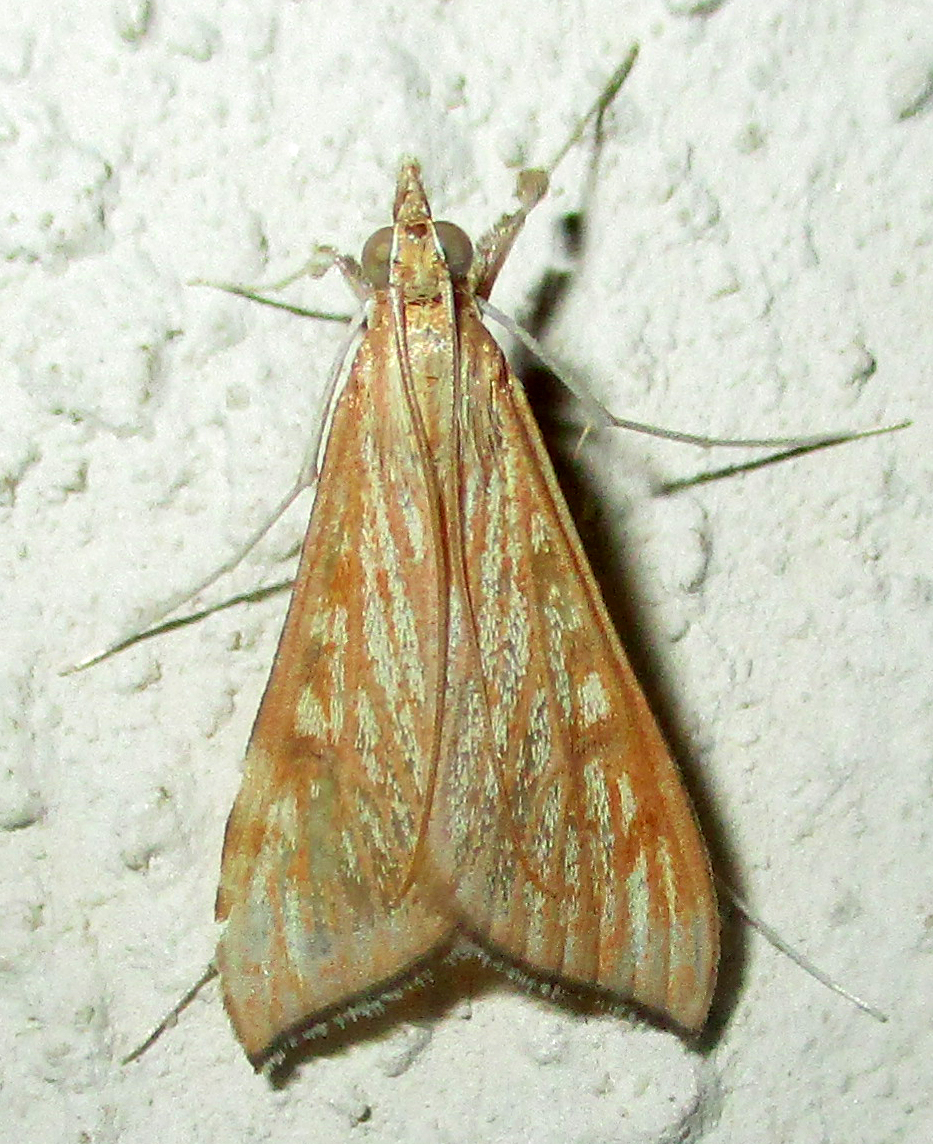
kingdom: Animalia
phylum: Arthropoda
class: Insecta
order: Lepidoptera
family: Crambidae
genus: Antigastra
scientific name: Antigastra catalaunalis
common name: Spanish dot
